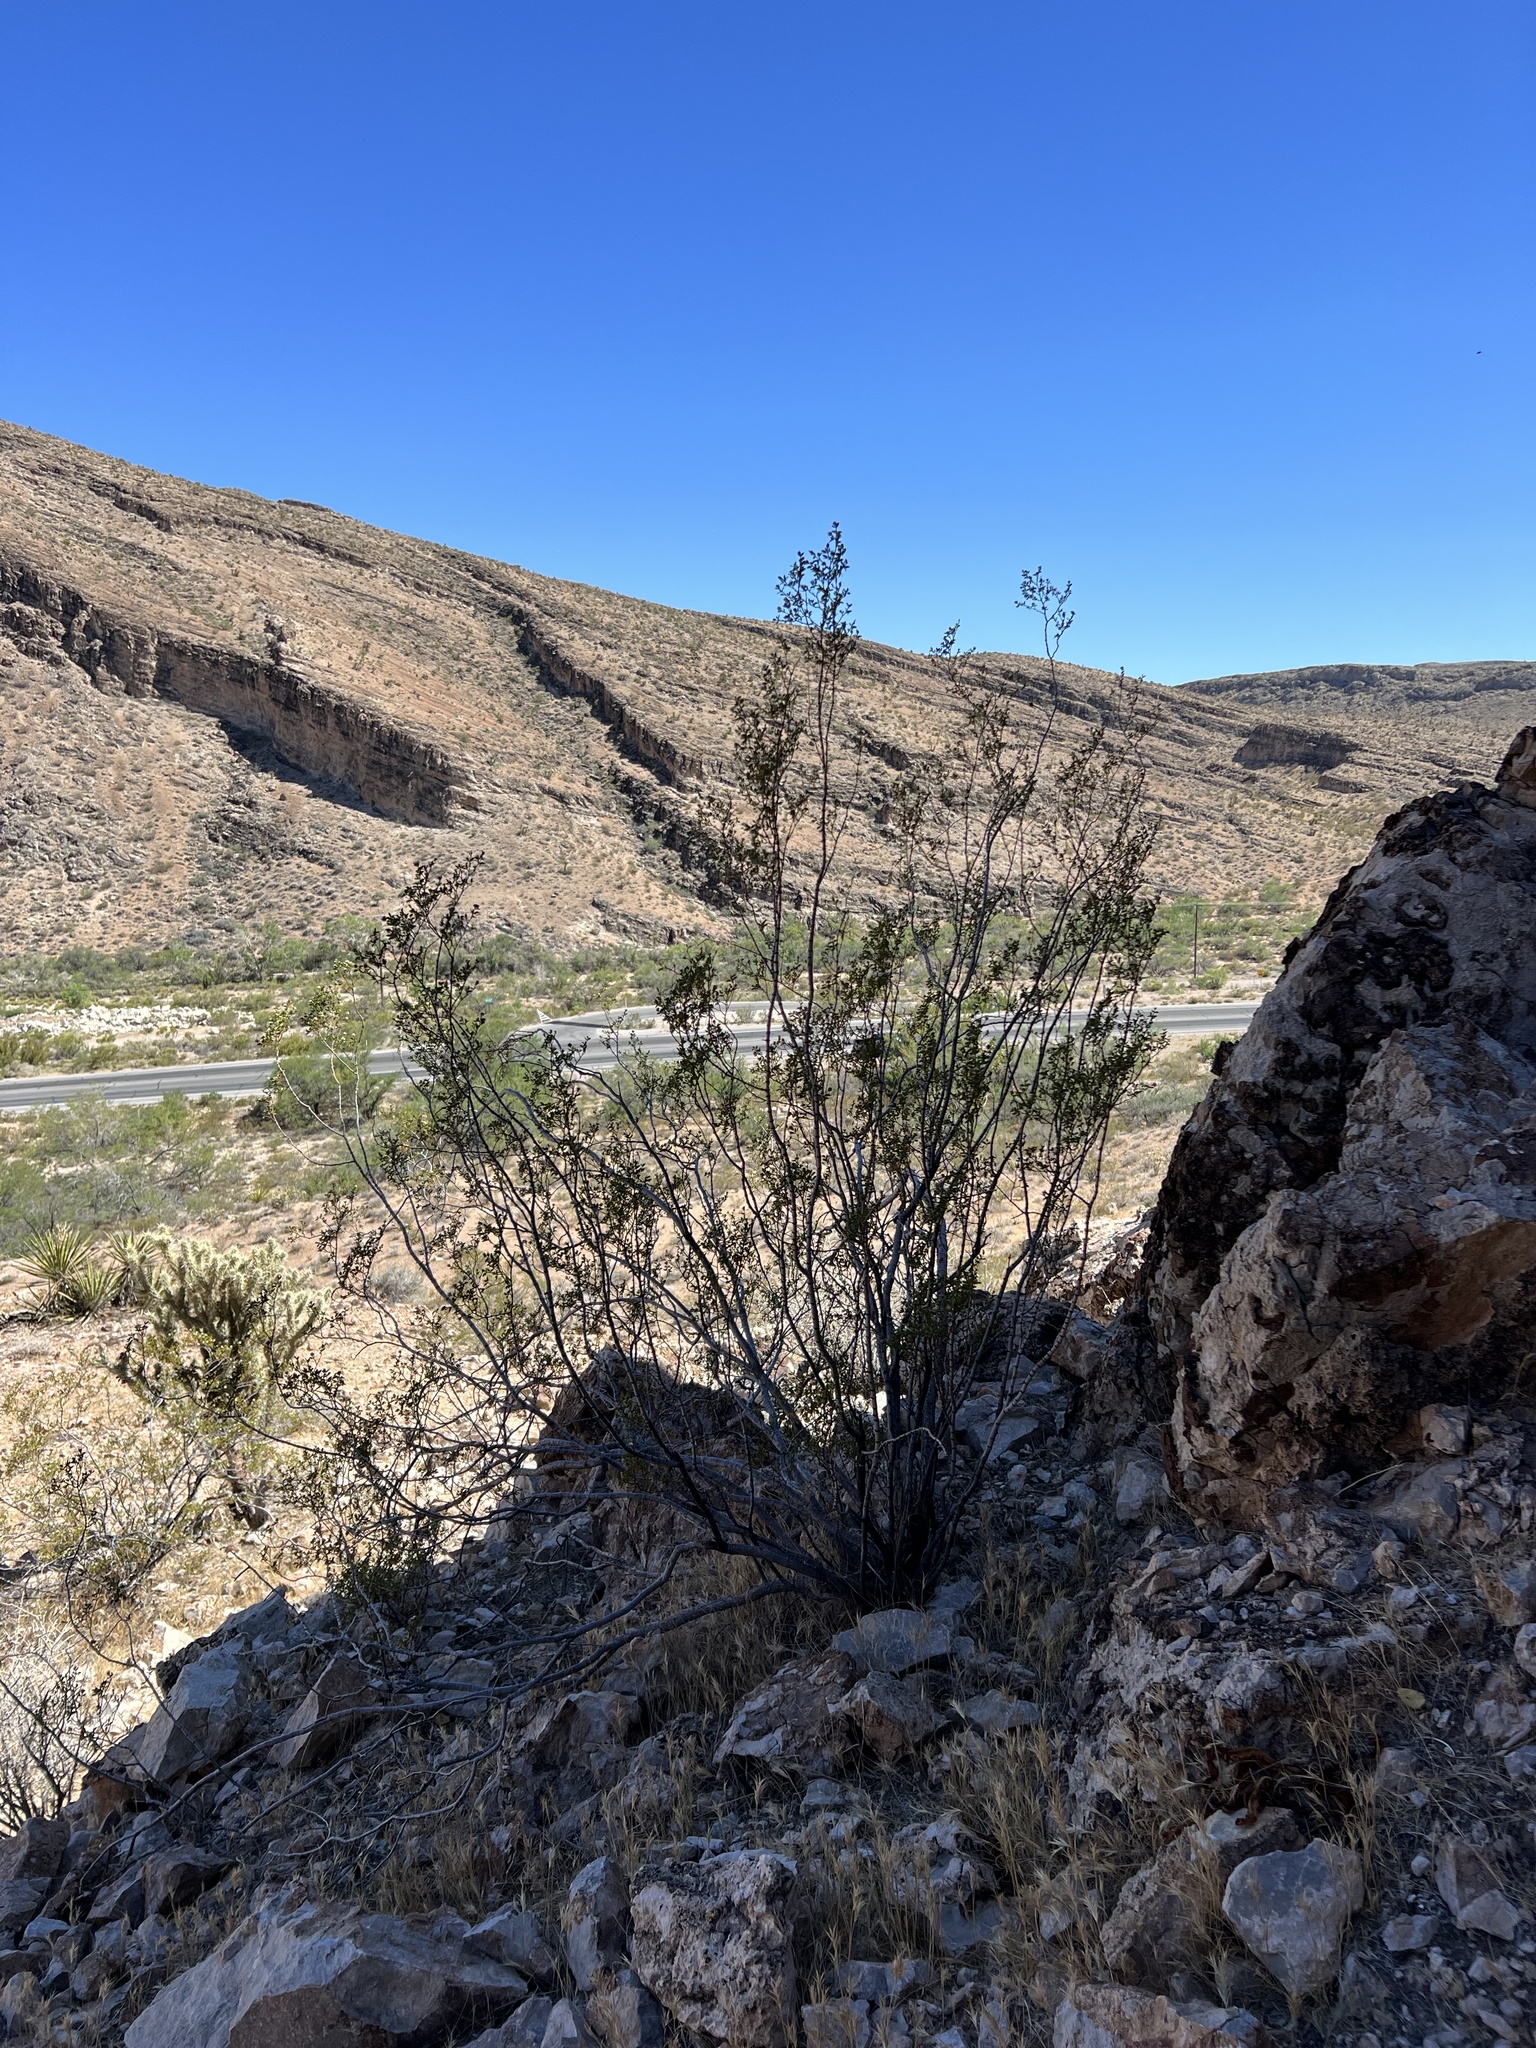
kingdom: Plantae
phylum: Tracheophyta
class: Magnoliopsida
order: Zygophyllales
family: Zygophyllaceae
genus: Larrea
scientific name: Larrea tridentata
